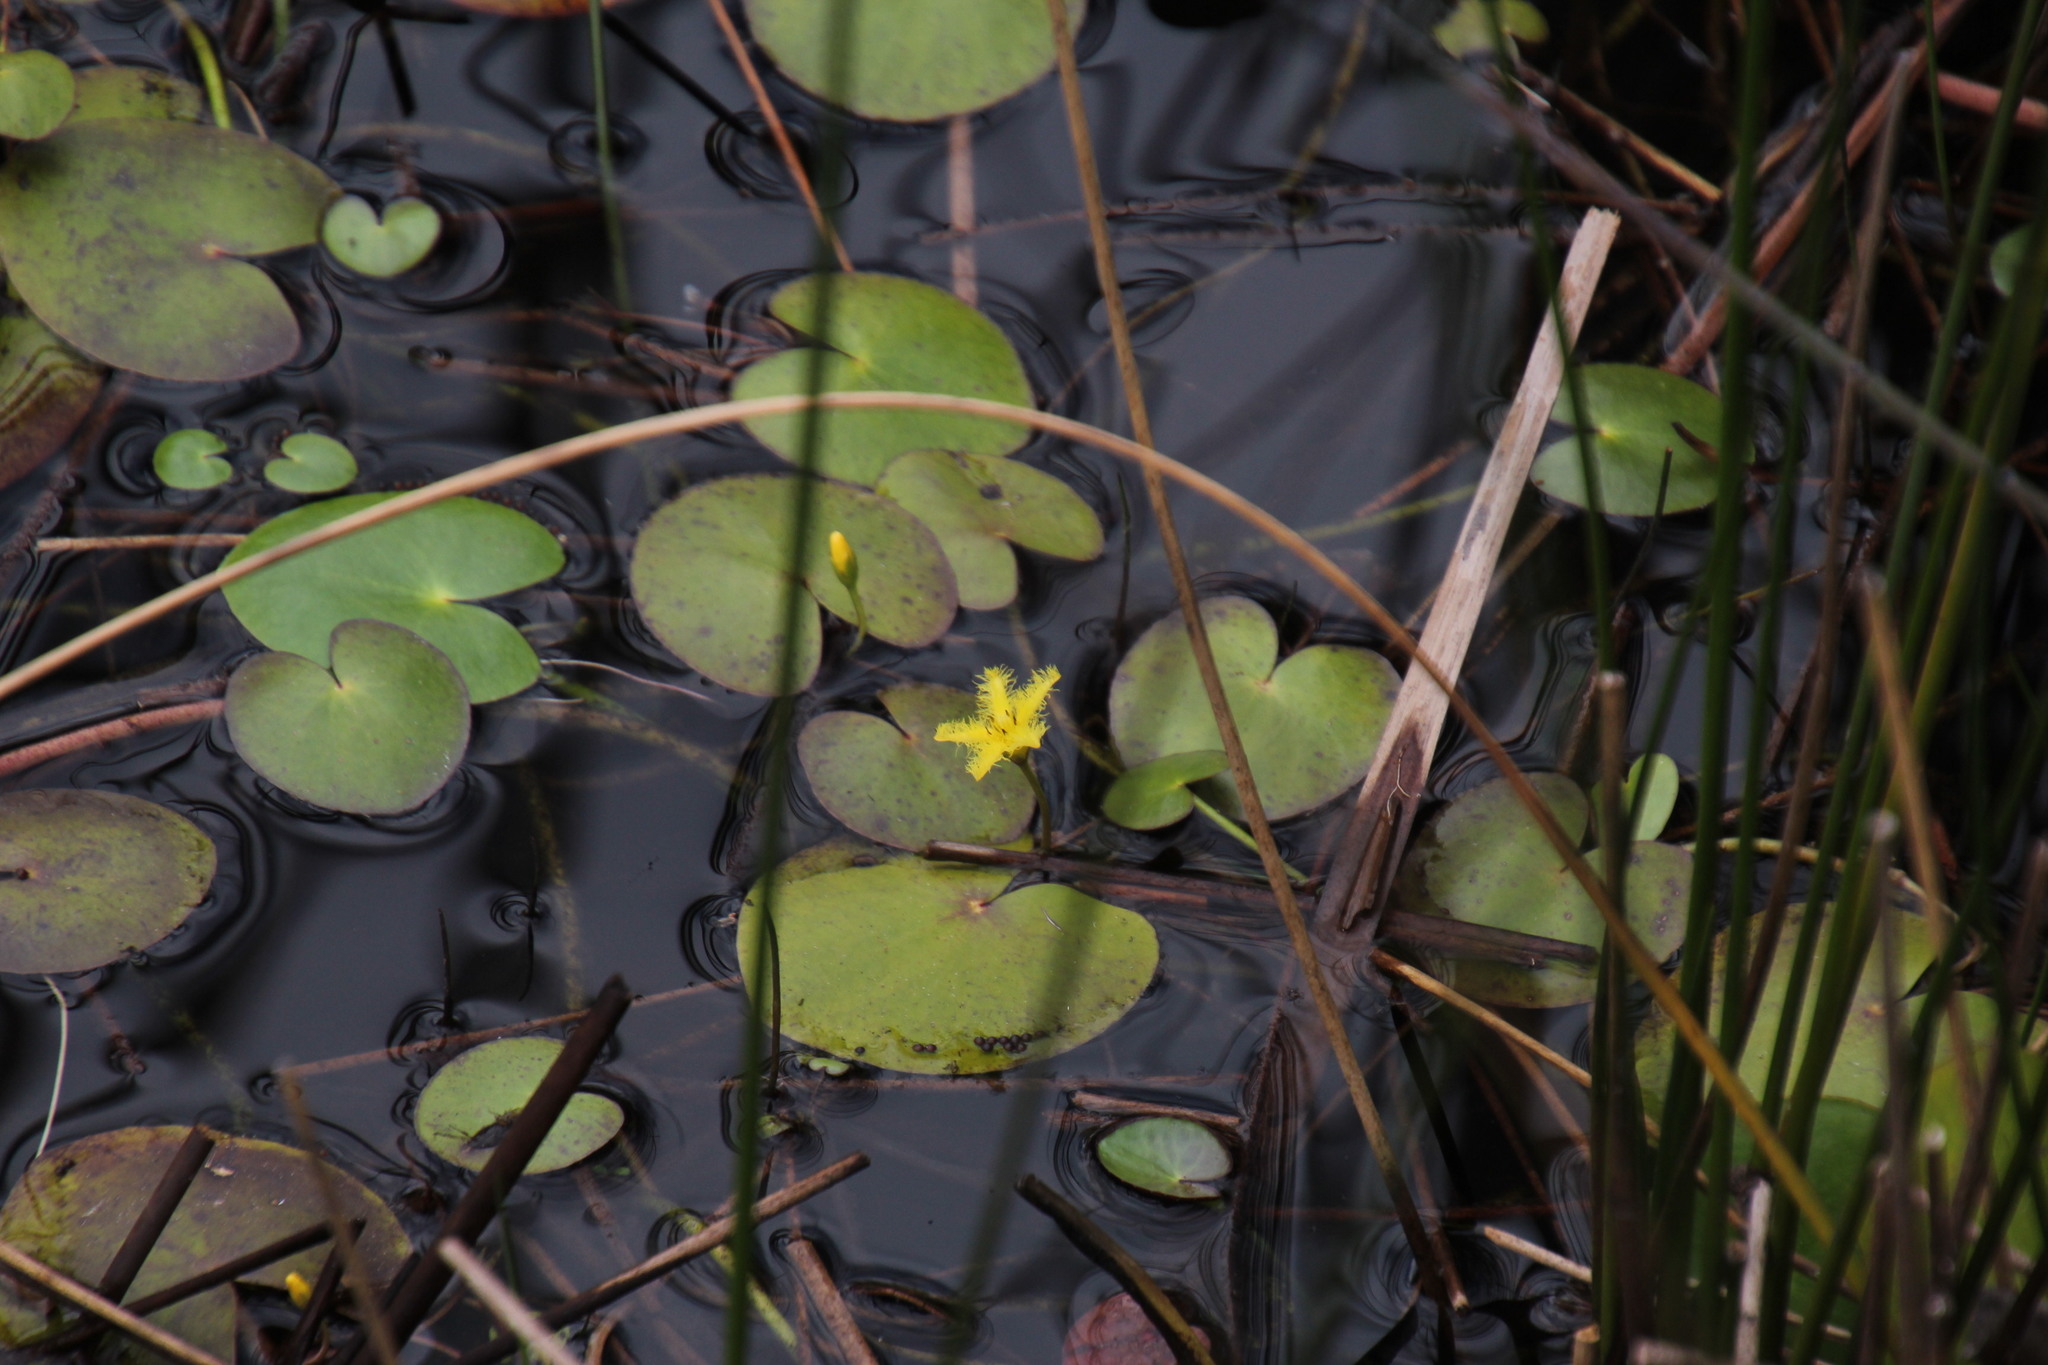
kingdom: Plantae
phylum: Tracheophyta
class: Magnoliopsida
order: Asterales
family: Menyanthaceae
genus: Nymphoides
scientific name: Nymphoides thunbergiana
